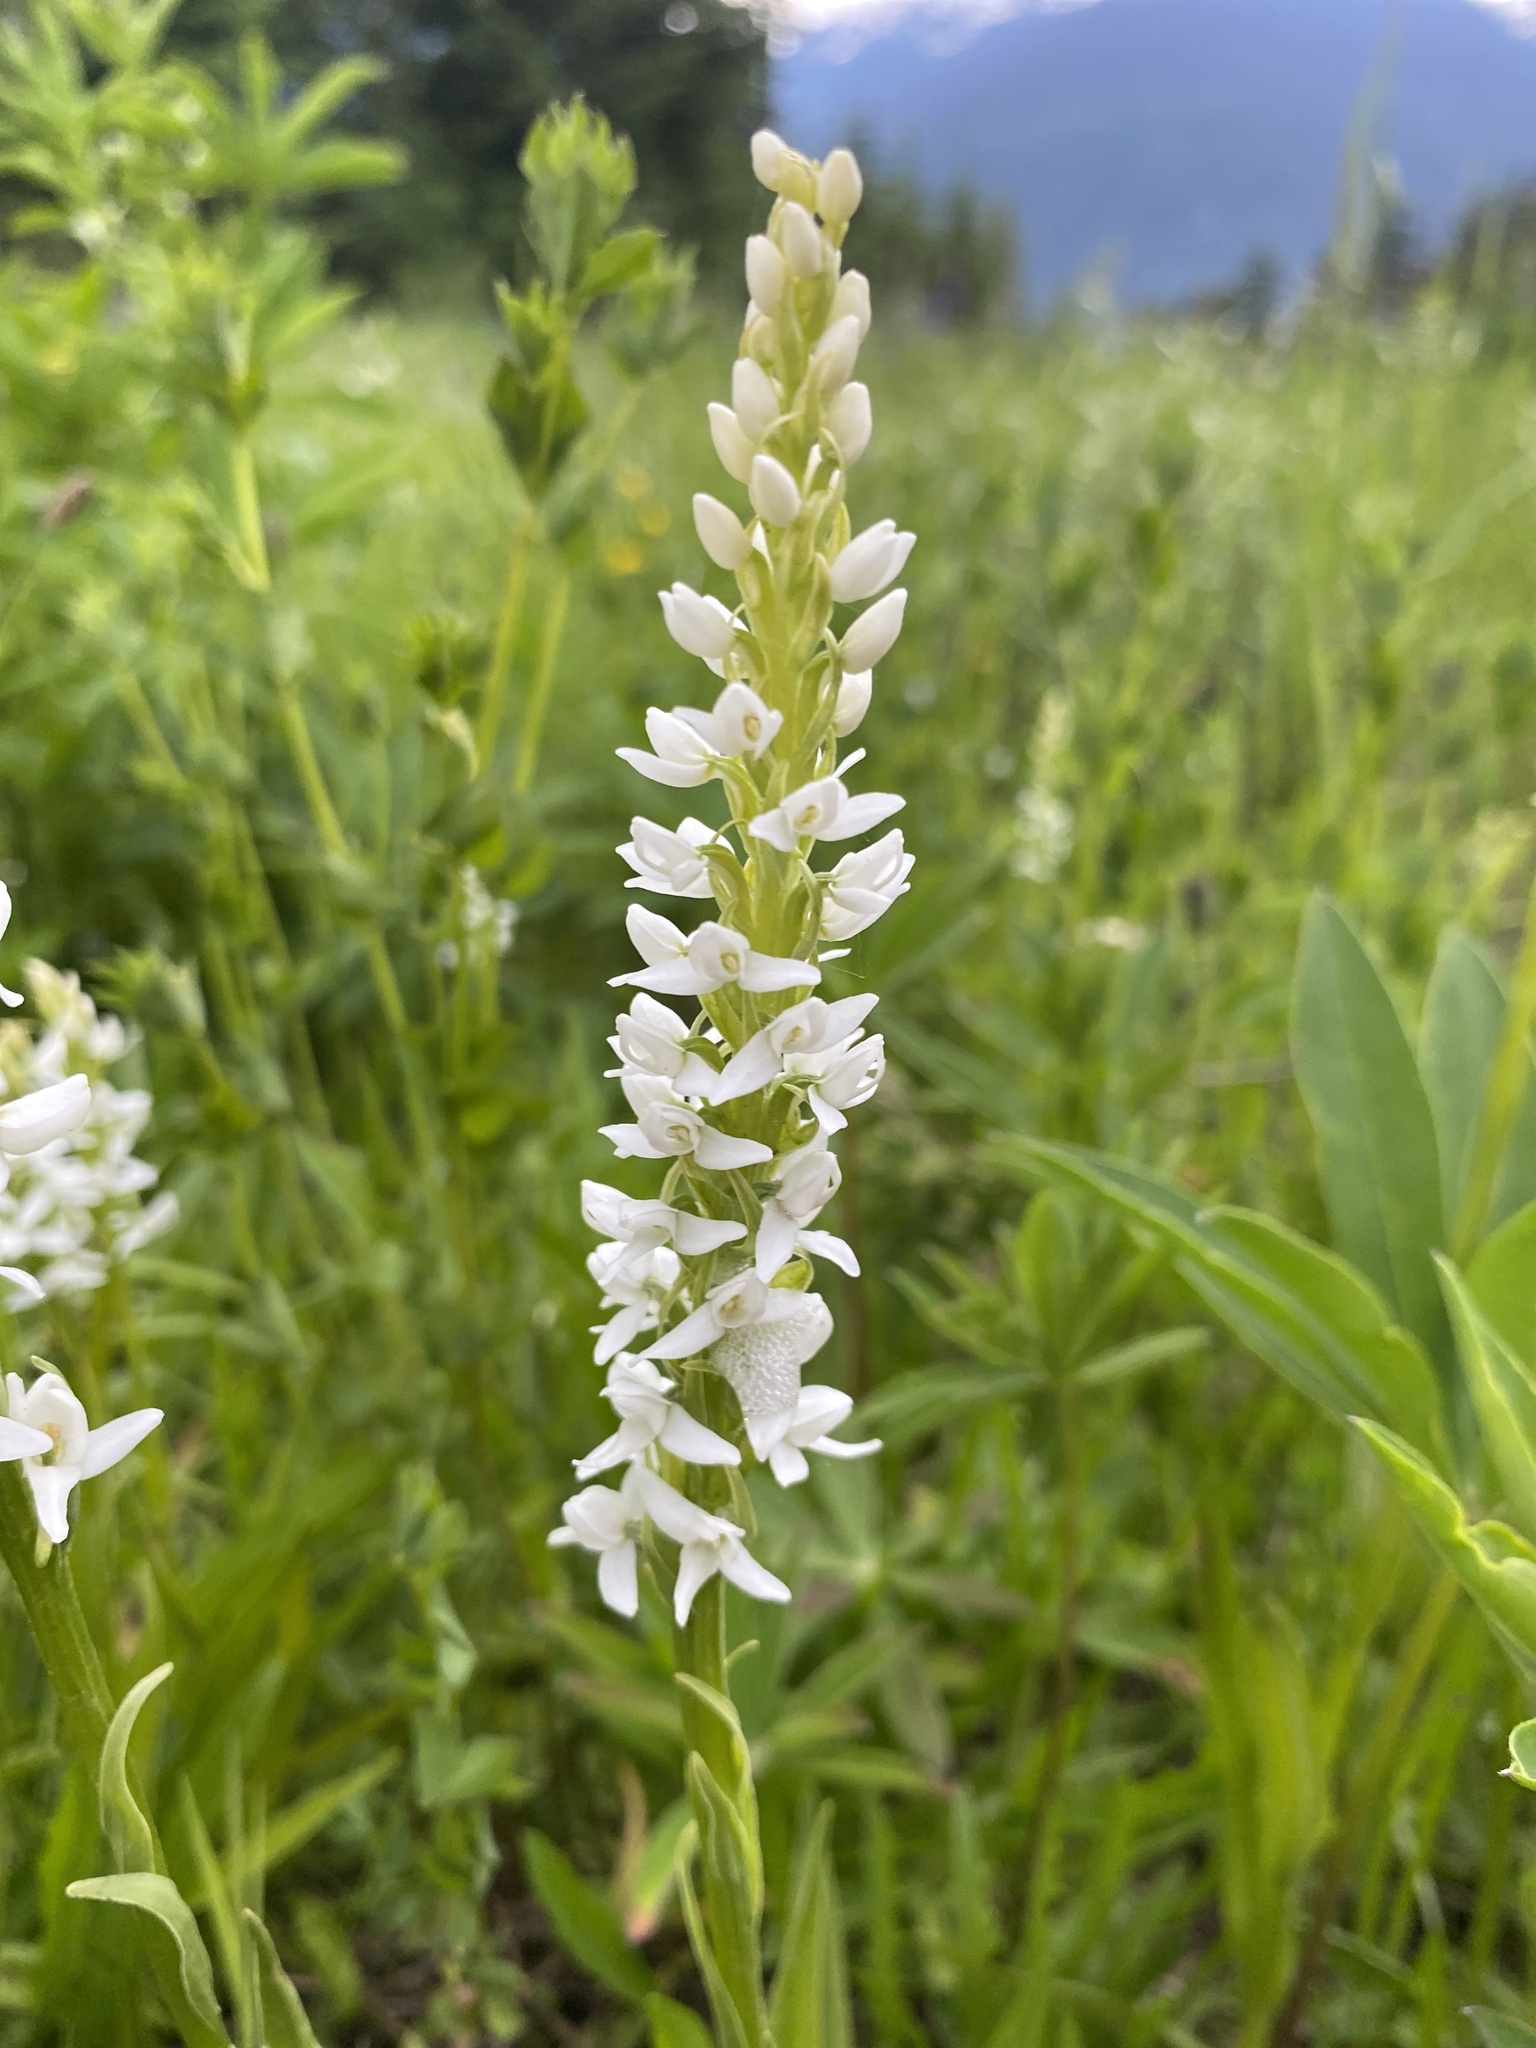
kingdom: Plantae
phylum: Tracheophyta
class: Liliopsida
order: Asparagales
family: Orchidaceae
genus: Platanthera
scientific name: Platanthera dilatata
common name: Bog candles
